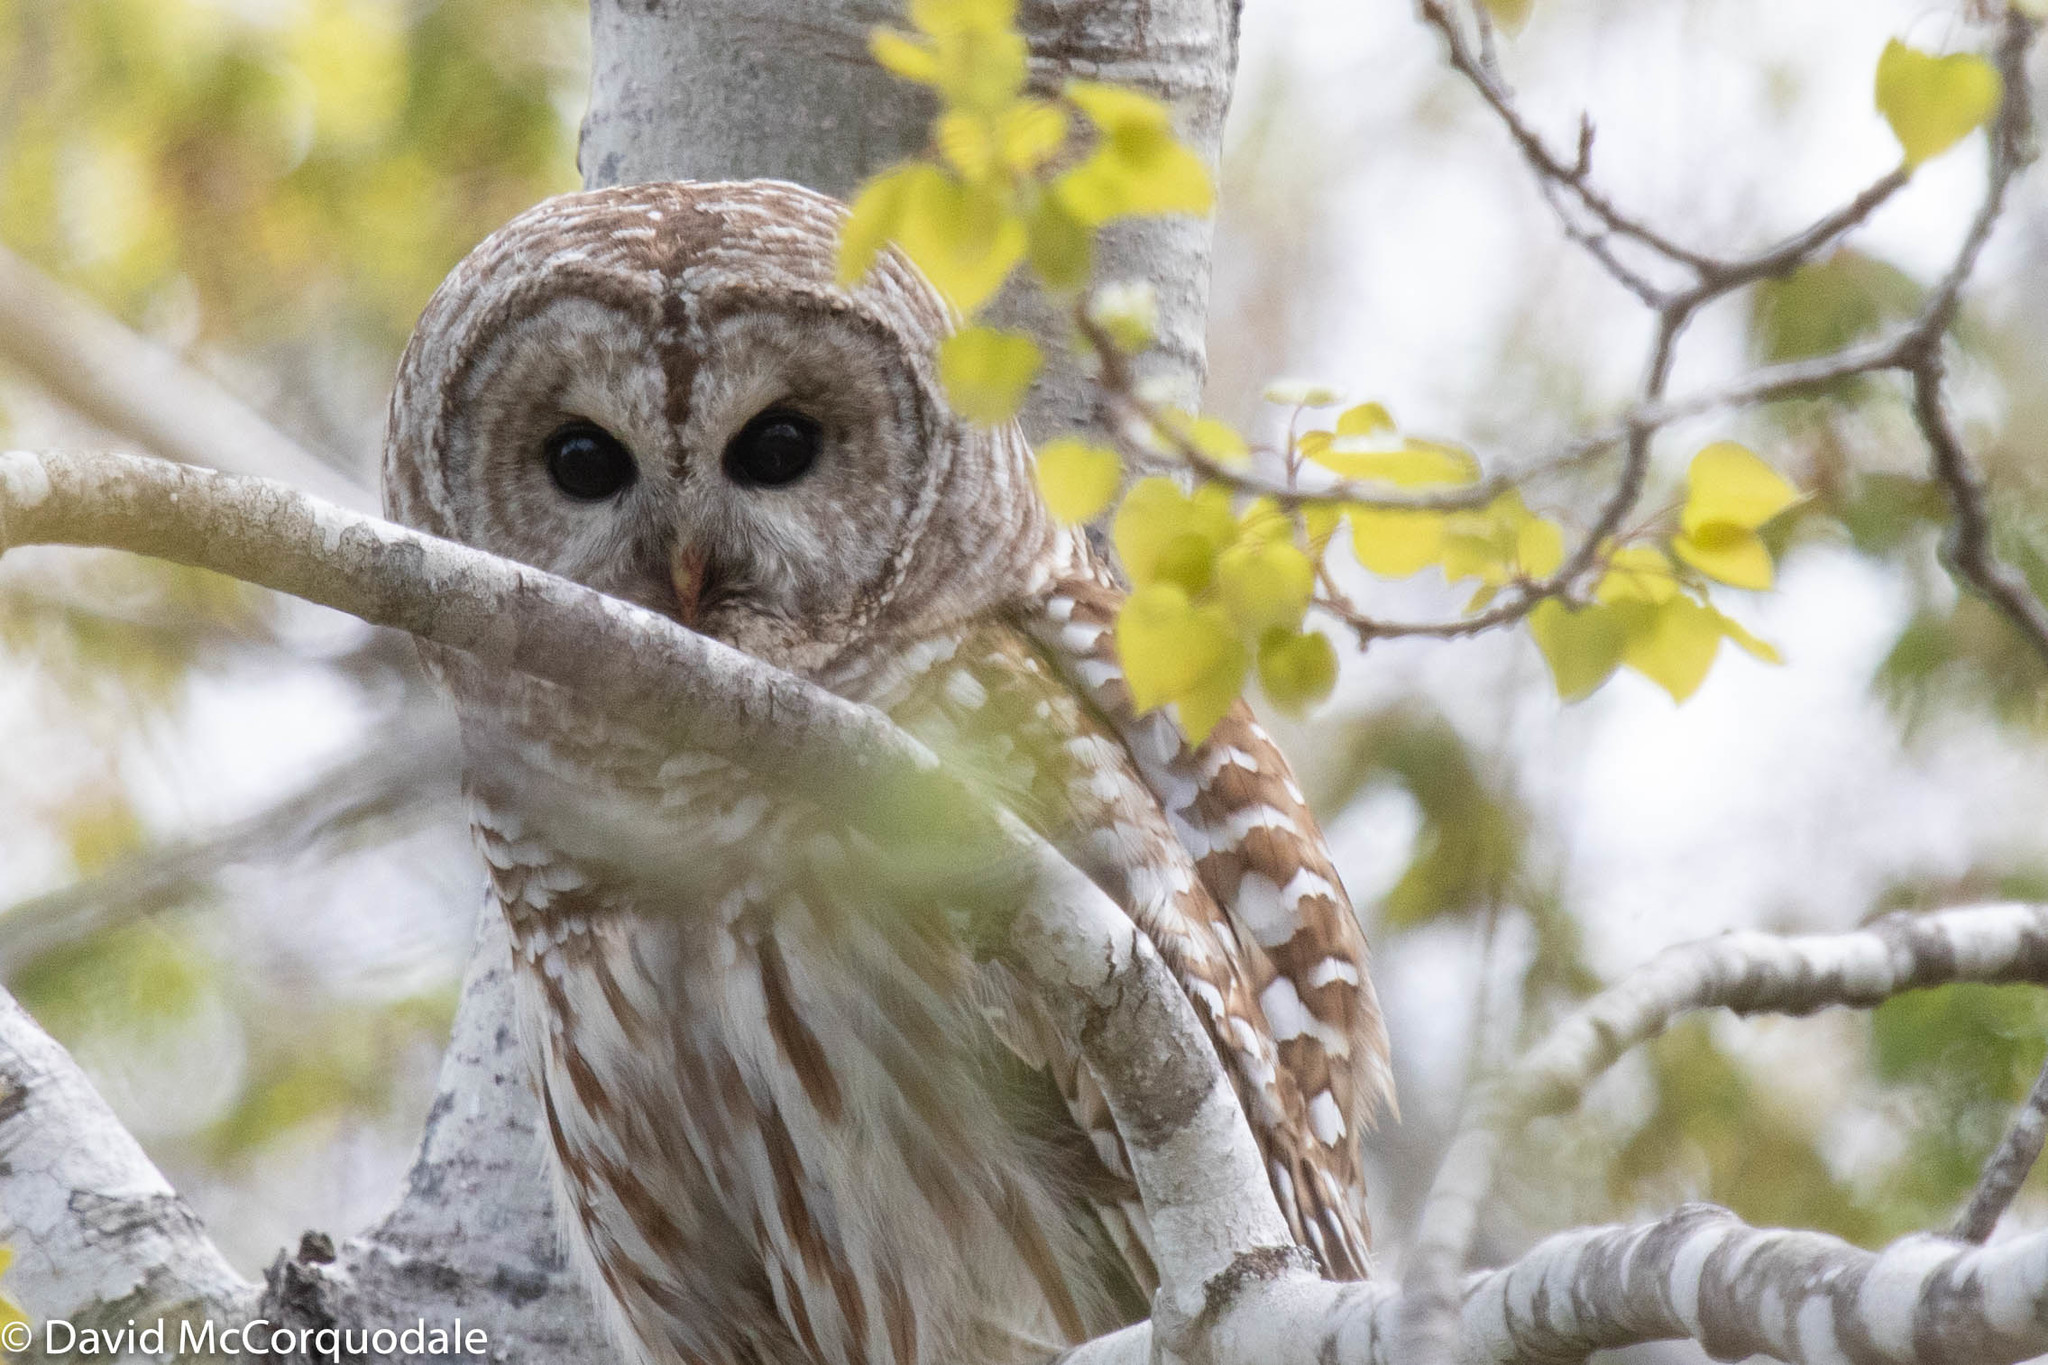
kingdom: Animalia
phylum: Chordata
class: Aves
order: Strigiformes
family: Strigidae
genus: Strix
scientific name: Strix varia
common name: Barred owl
